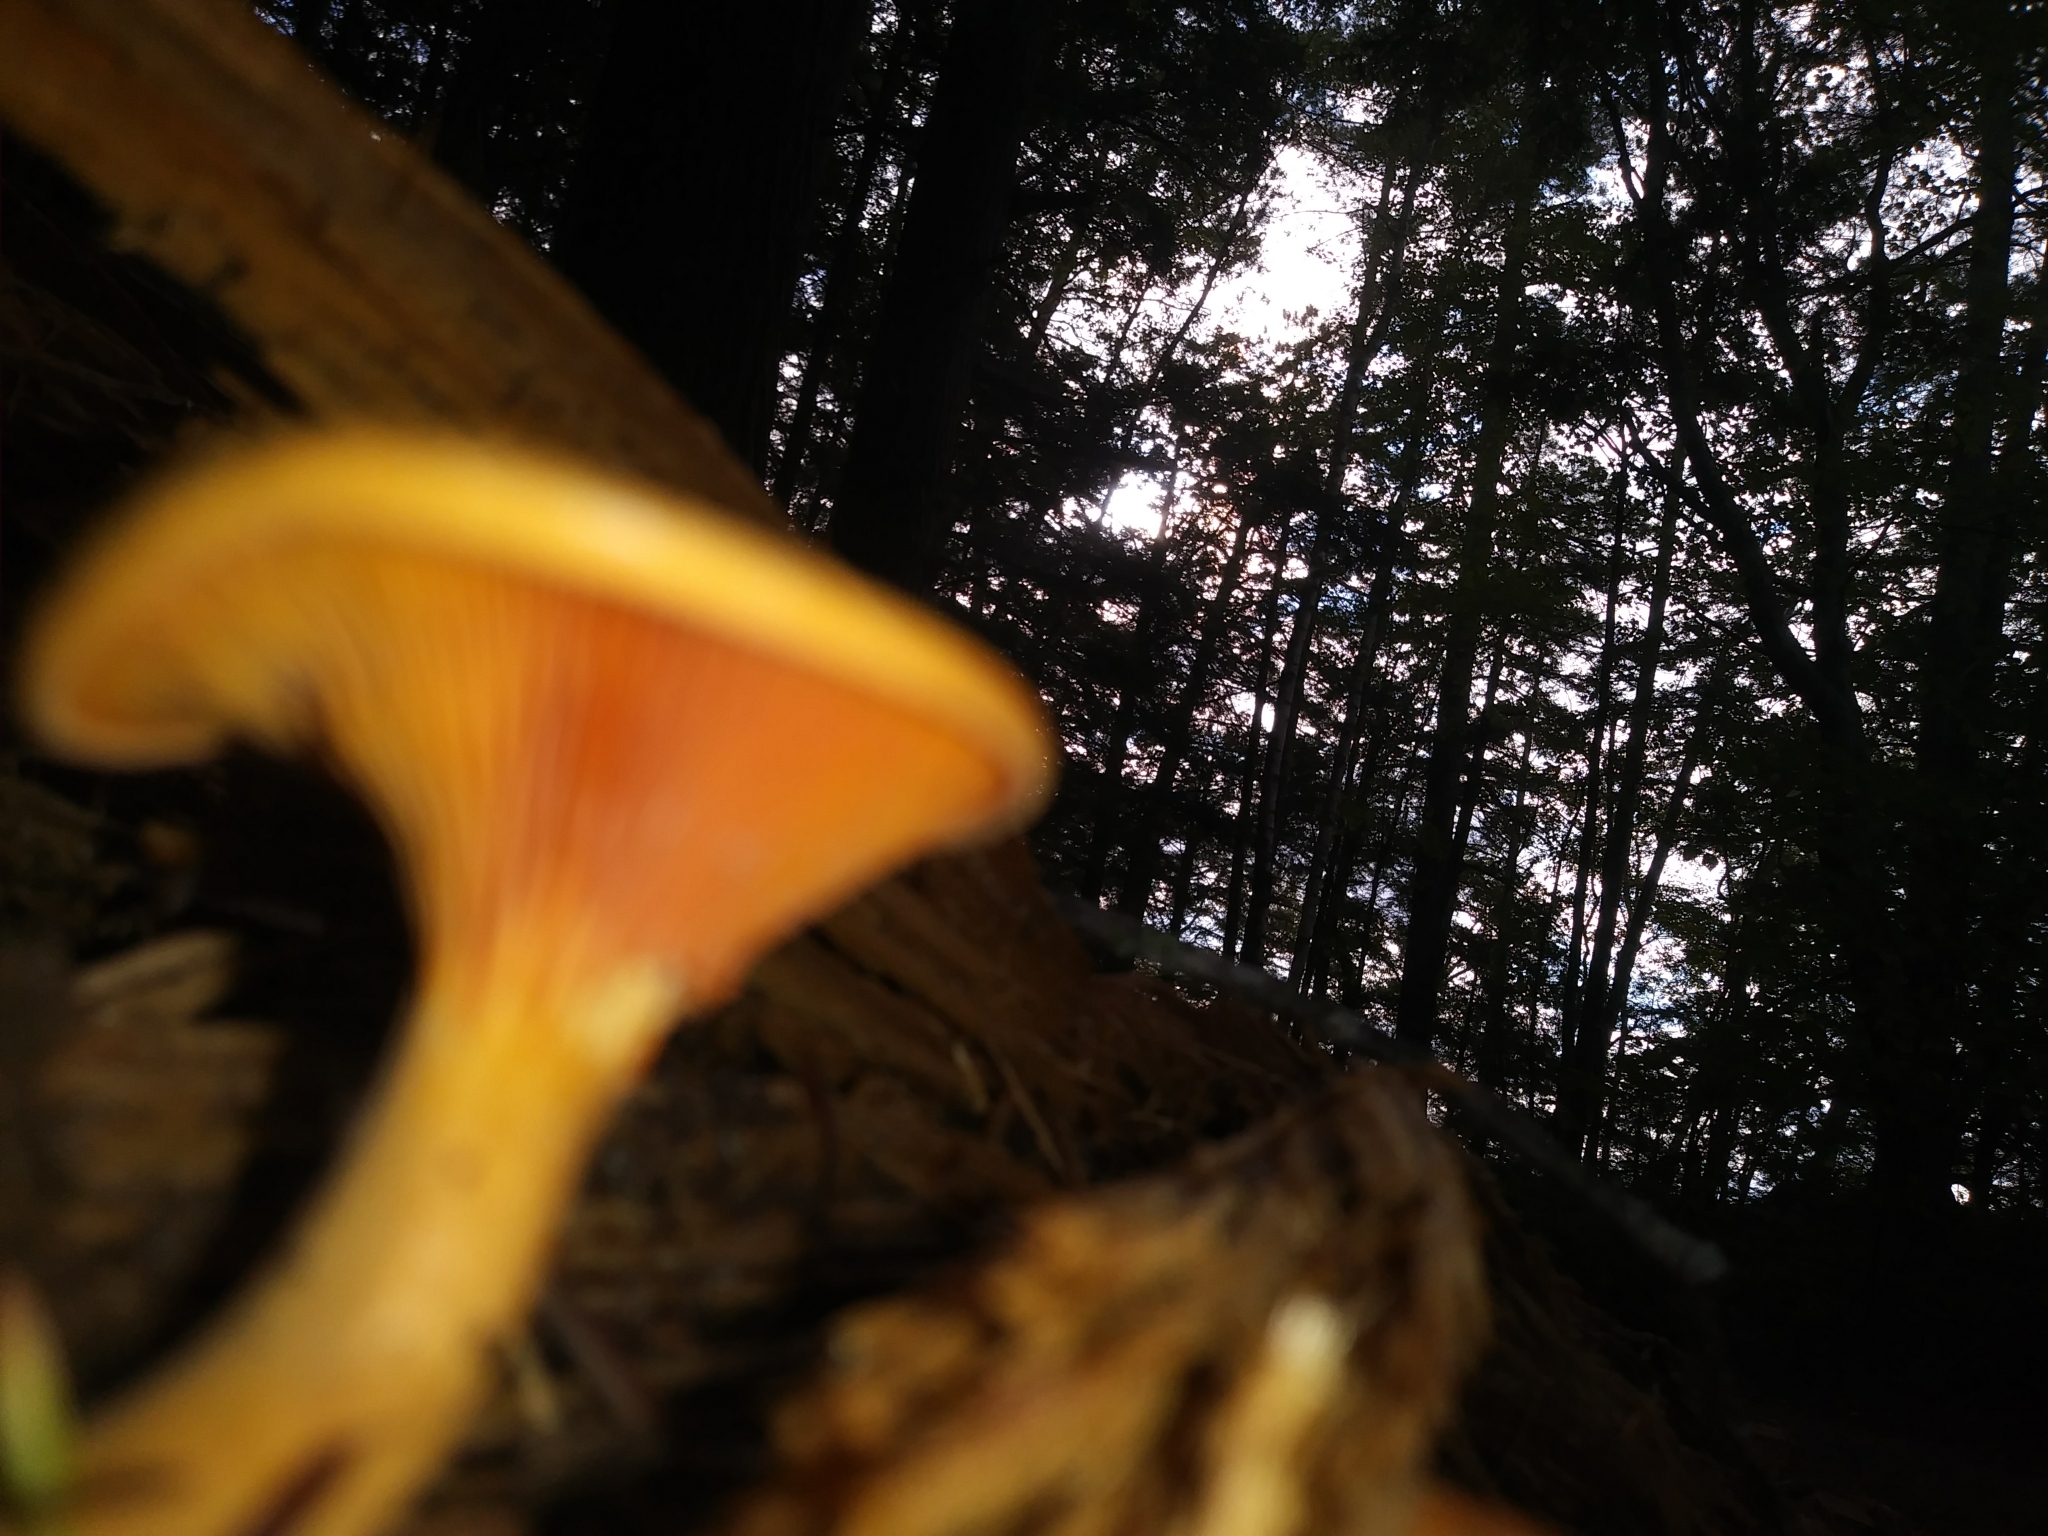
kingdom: Fungi
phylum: Basidiomycota
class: Agaricomycetes
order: Boletales
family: Hygrophoropsidaceae
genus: Hygrophoropsis
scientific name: Hygrophoropsis aurantiaca
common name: False chanterelle
